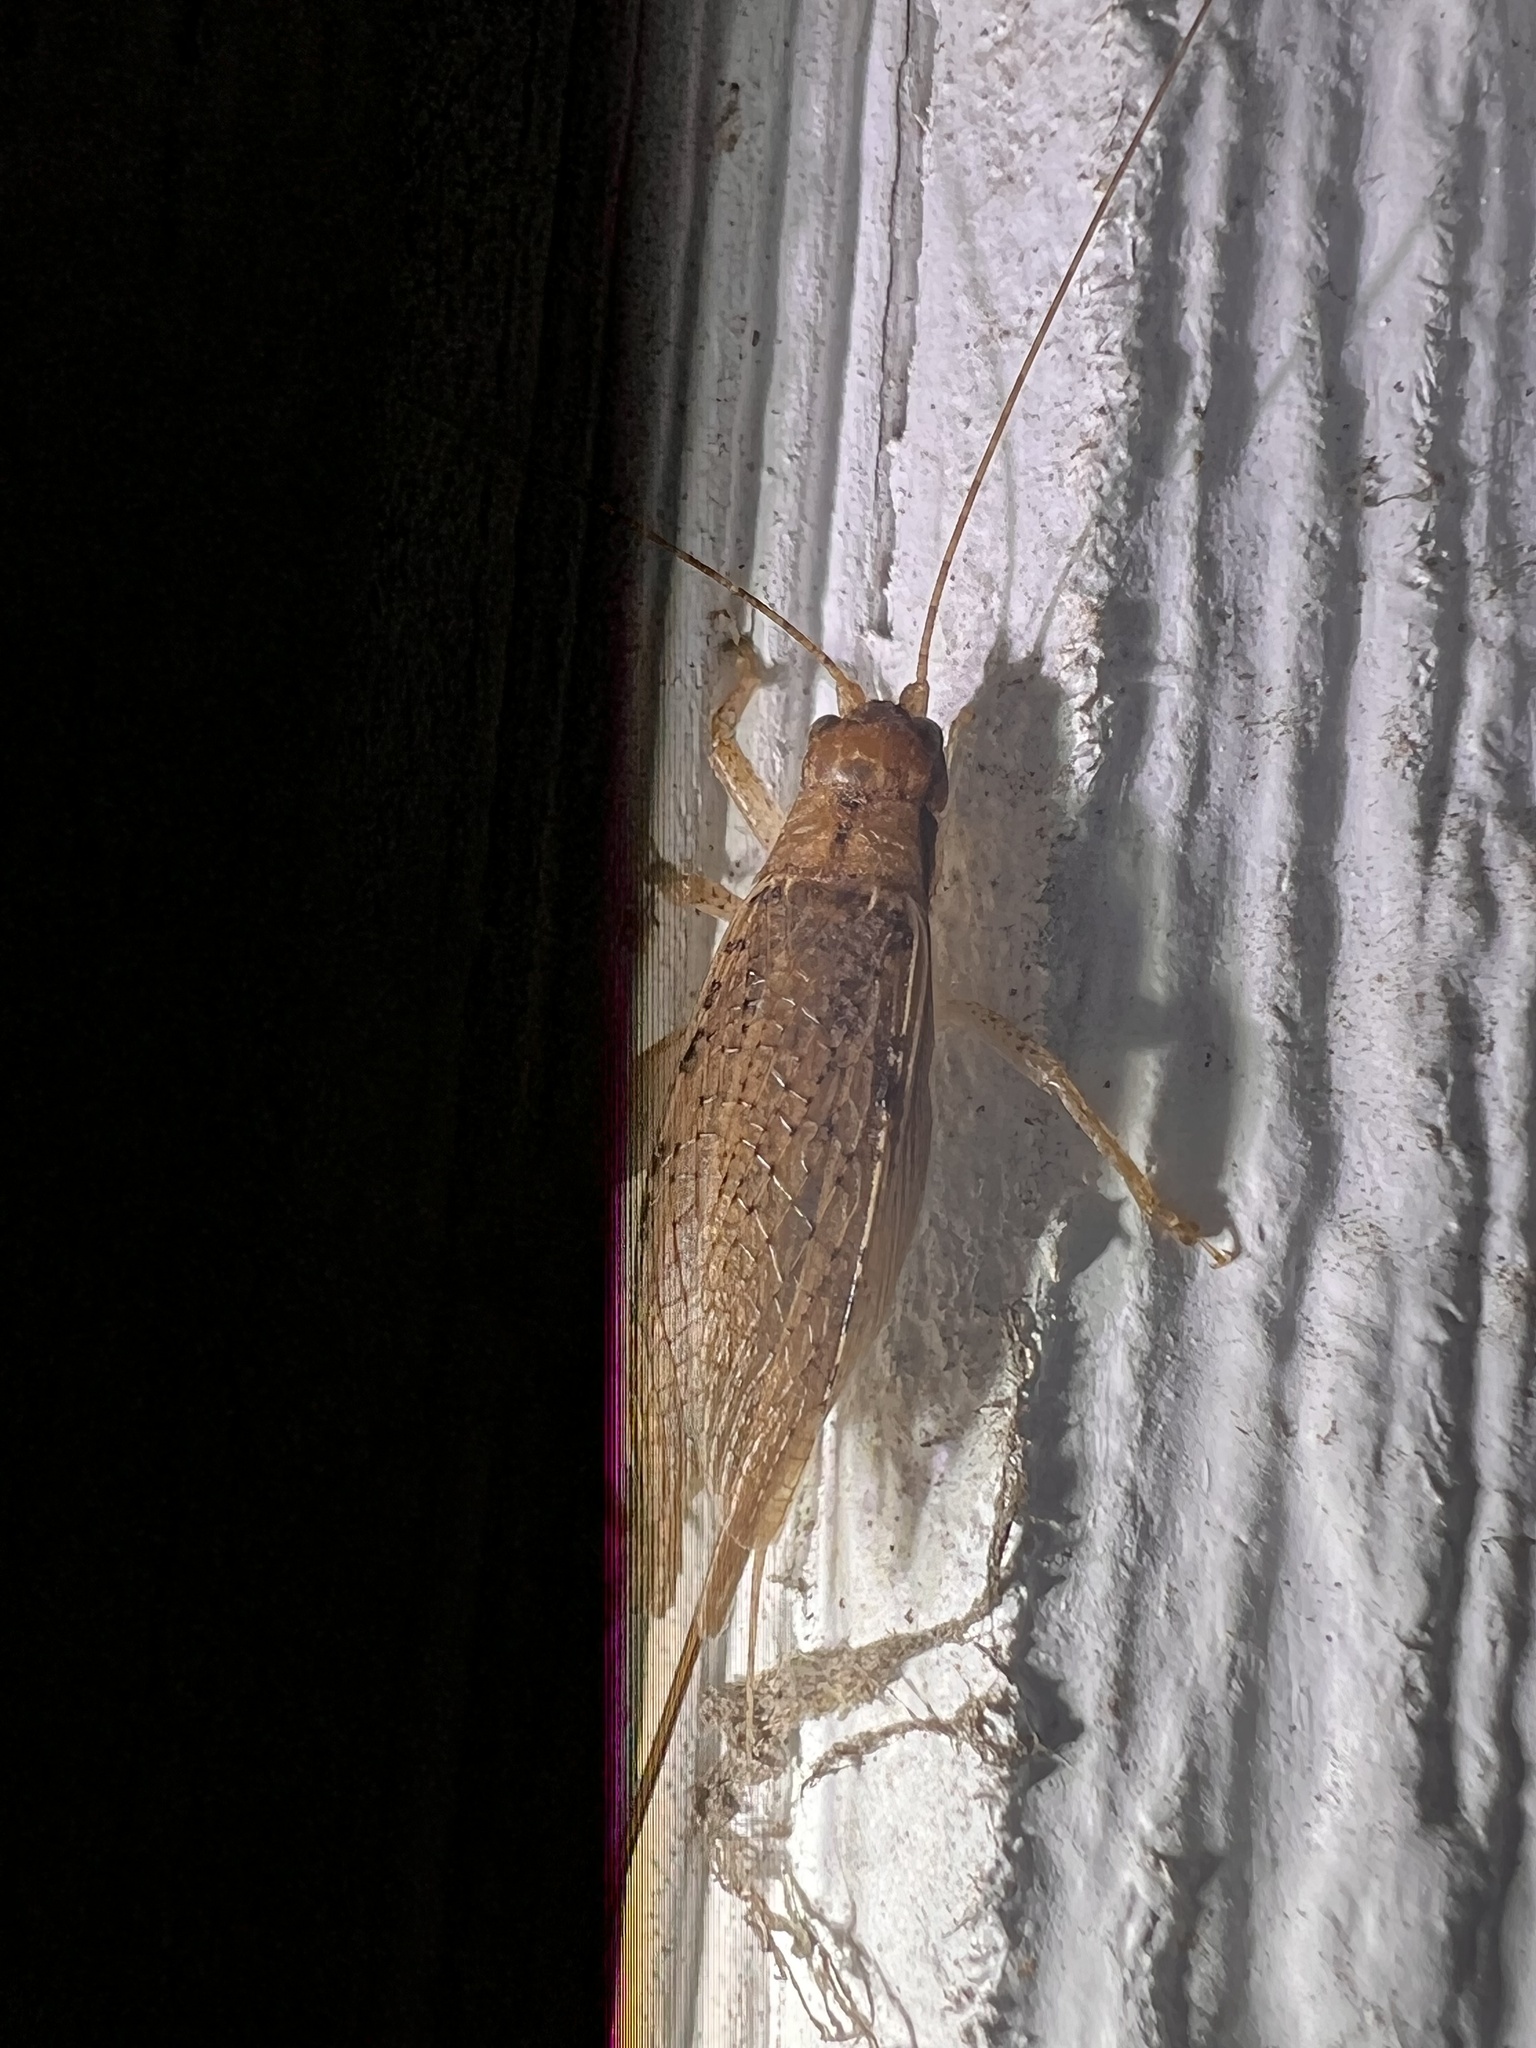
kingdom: Animalia
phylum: Arthropoda
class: Insecta
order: Orthoptera
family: Gryllidae
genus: Hapithus
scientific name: Hapithus saltator
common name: Jumping bush cricket
